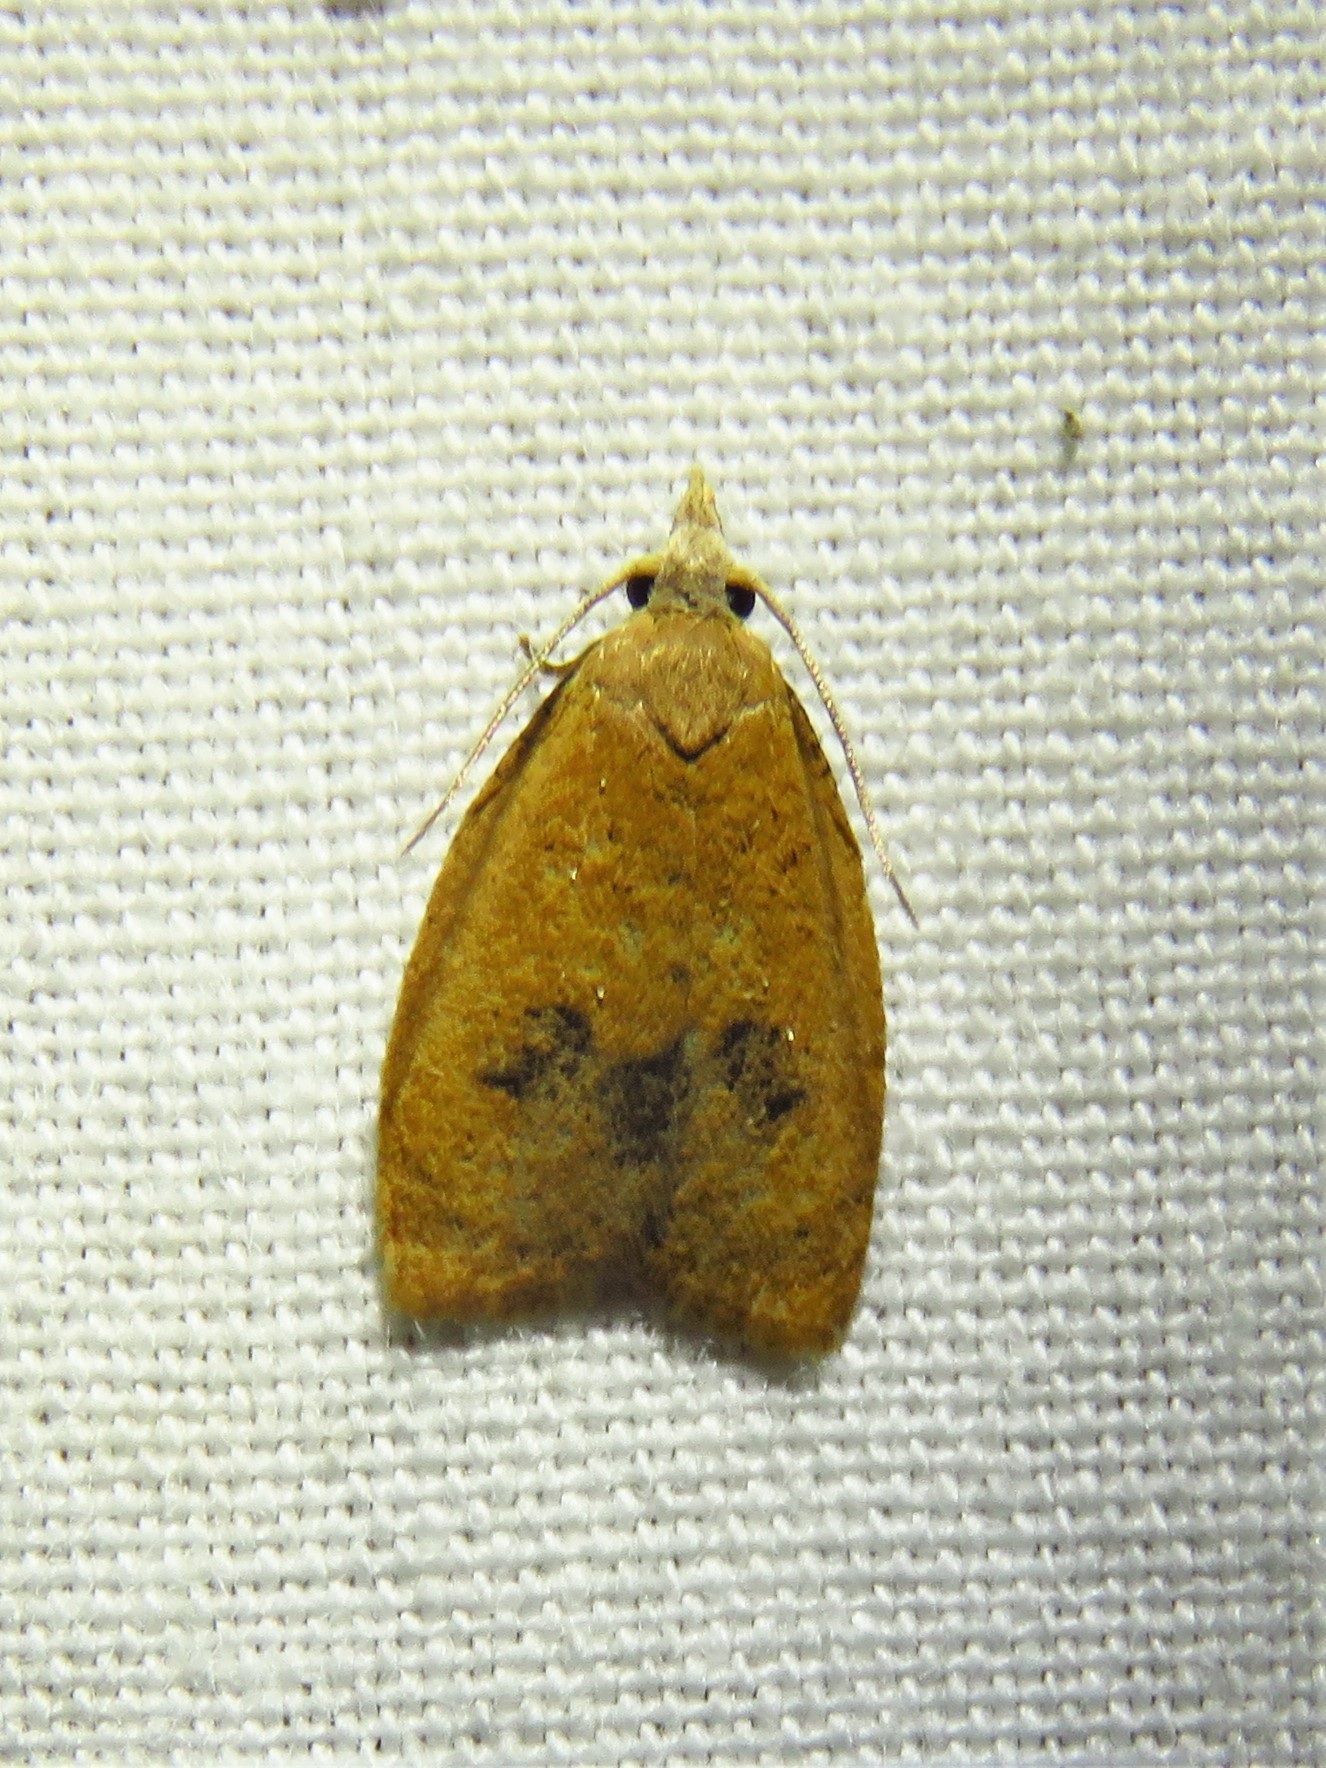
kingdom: Animalia
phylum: Arthropoda
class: Insecta
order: Lepidoptera
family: Tortricidae
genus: Sparganothoides
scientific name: Sparganothoides lentiginosana
